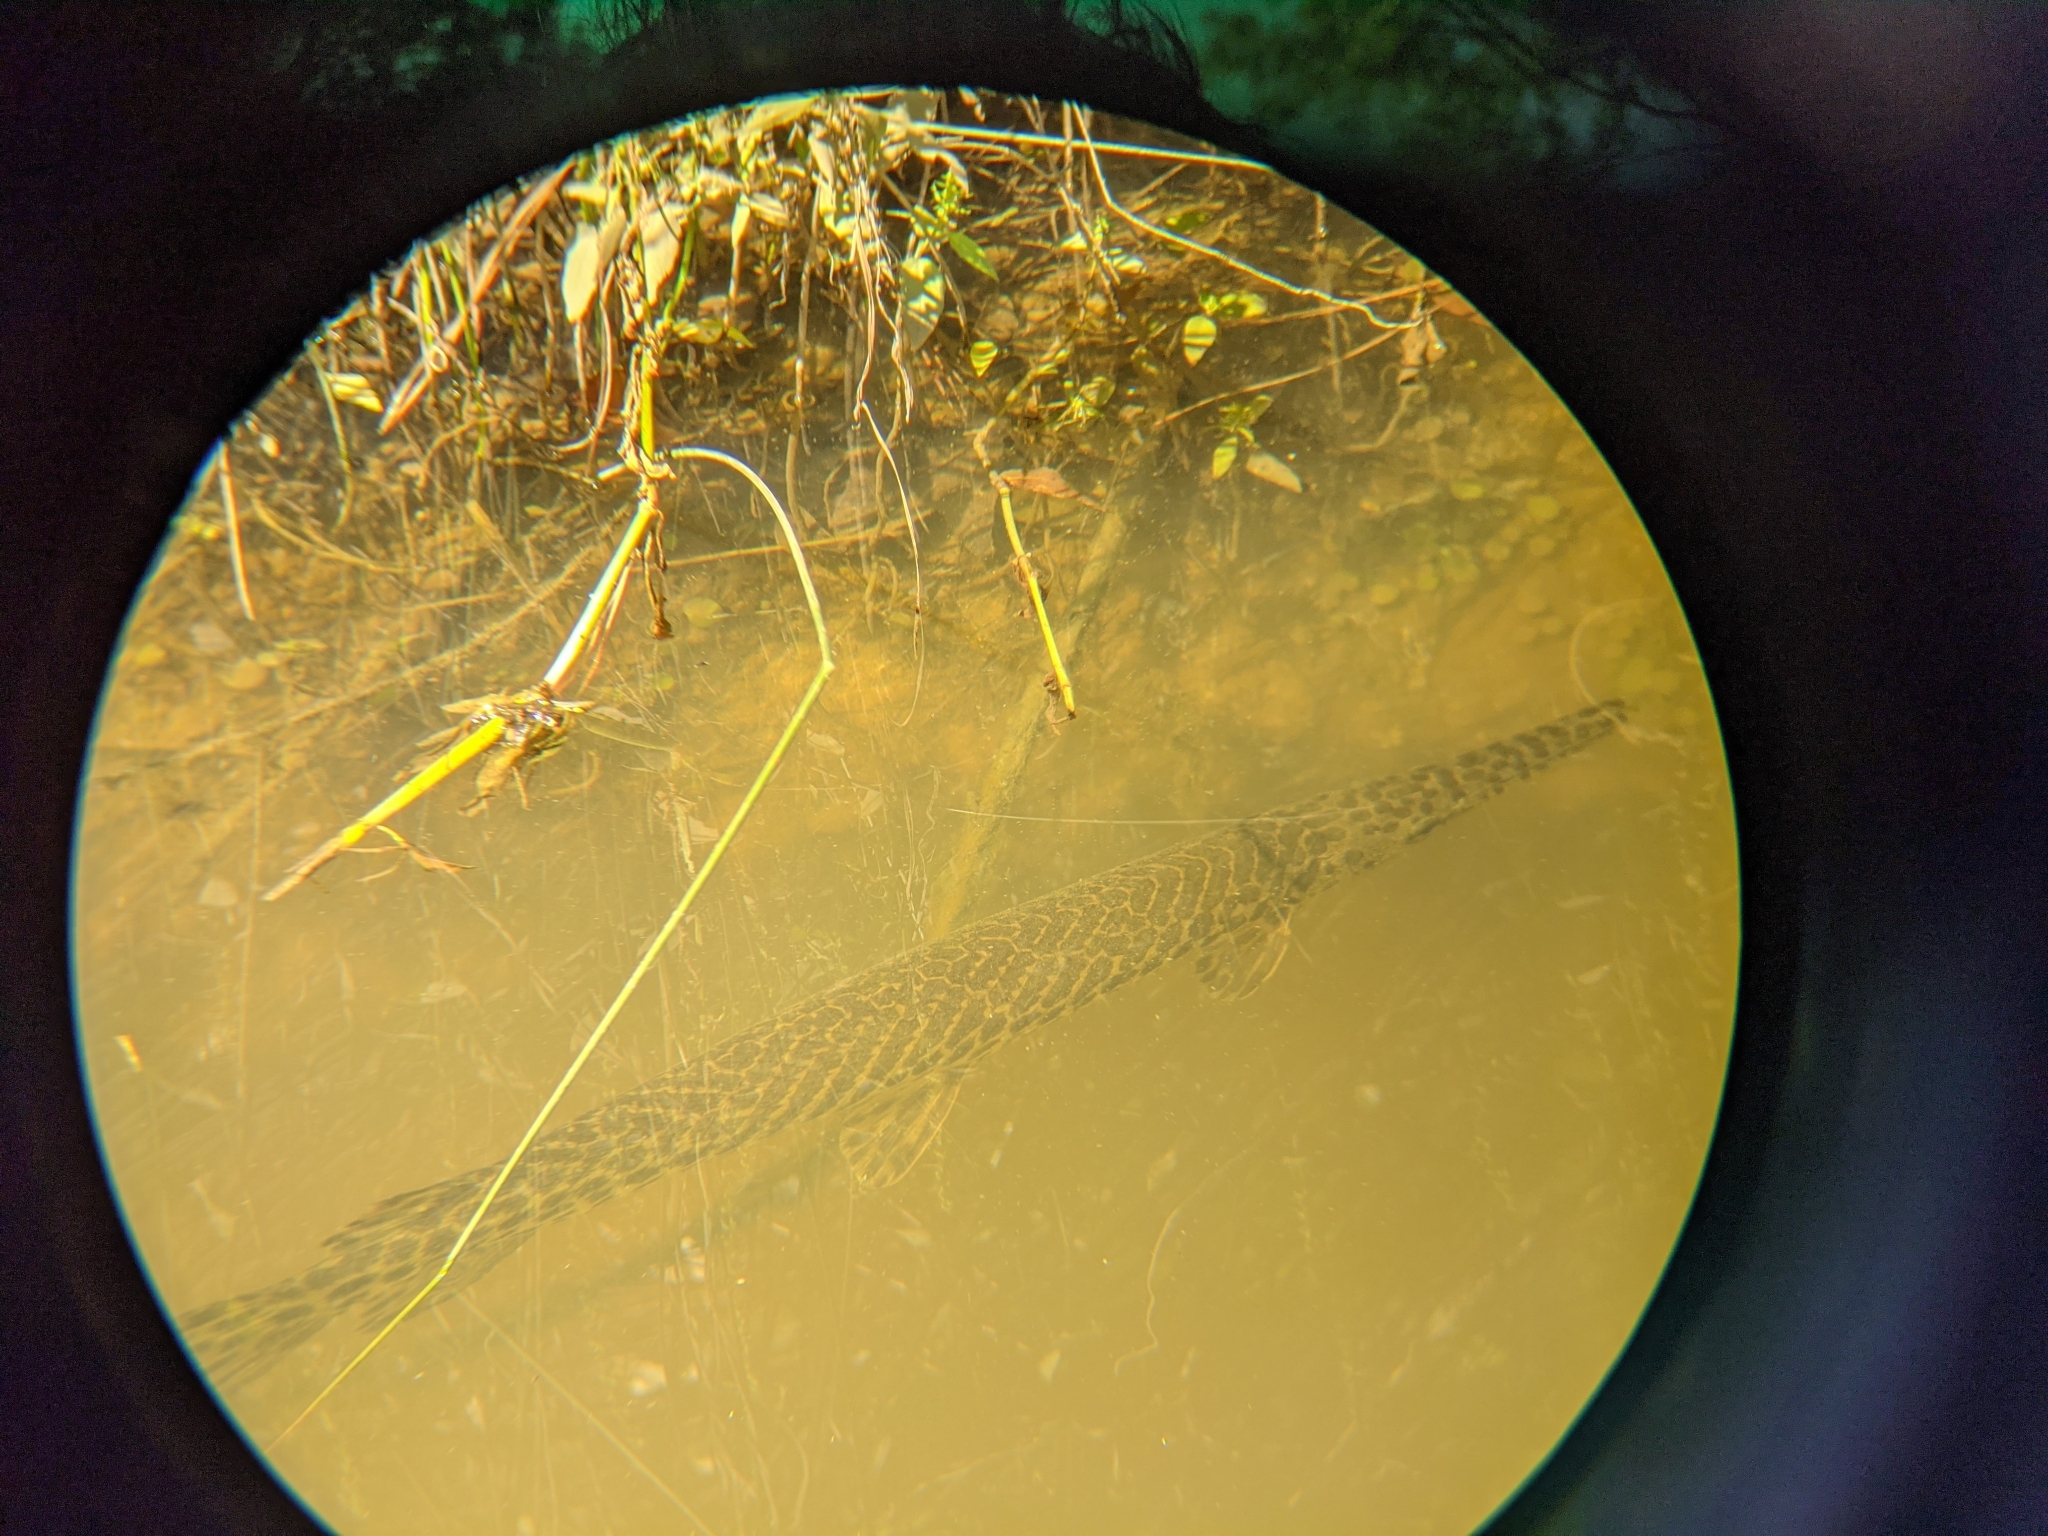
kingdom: Animalia
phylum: Chordata
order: Lepisosteiformes
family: Lepisosteidae
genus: Lepisosteus
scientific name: Lepisosteus oculatus
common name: Spotted gar
